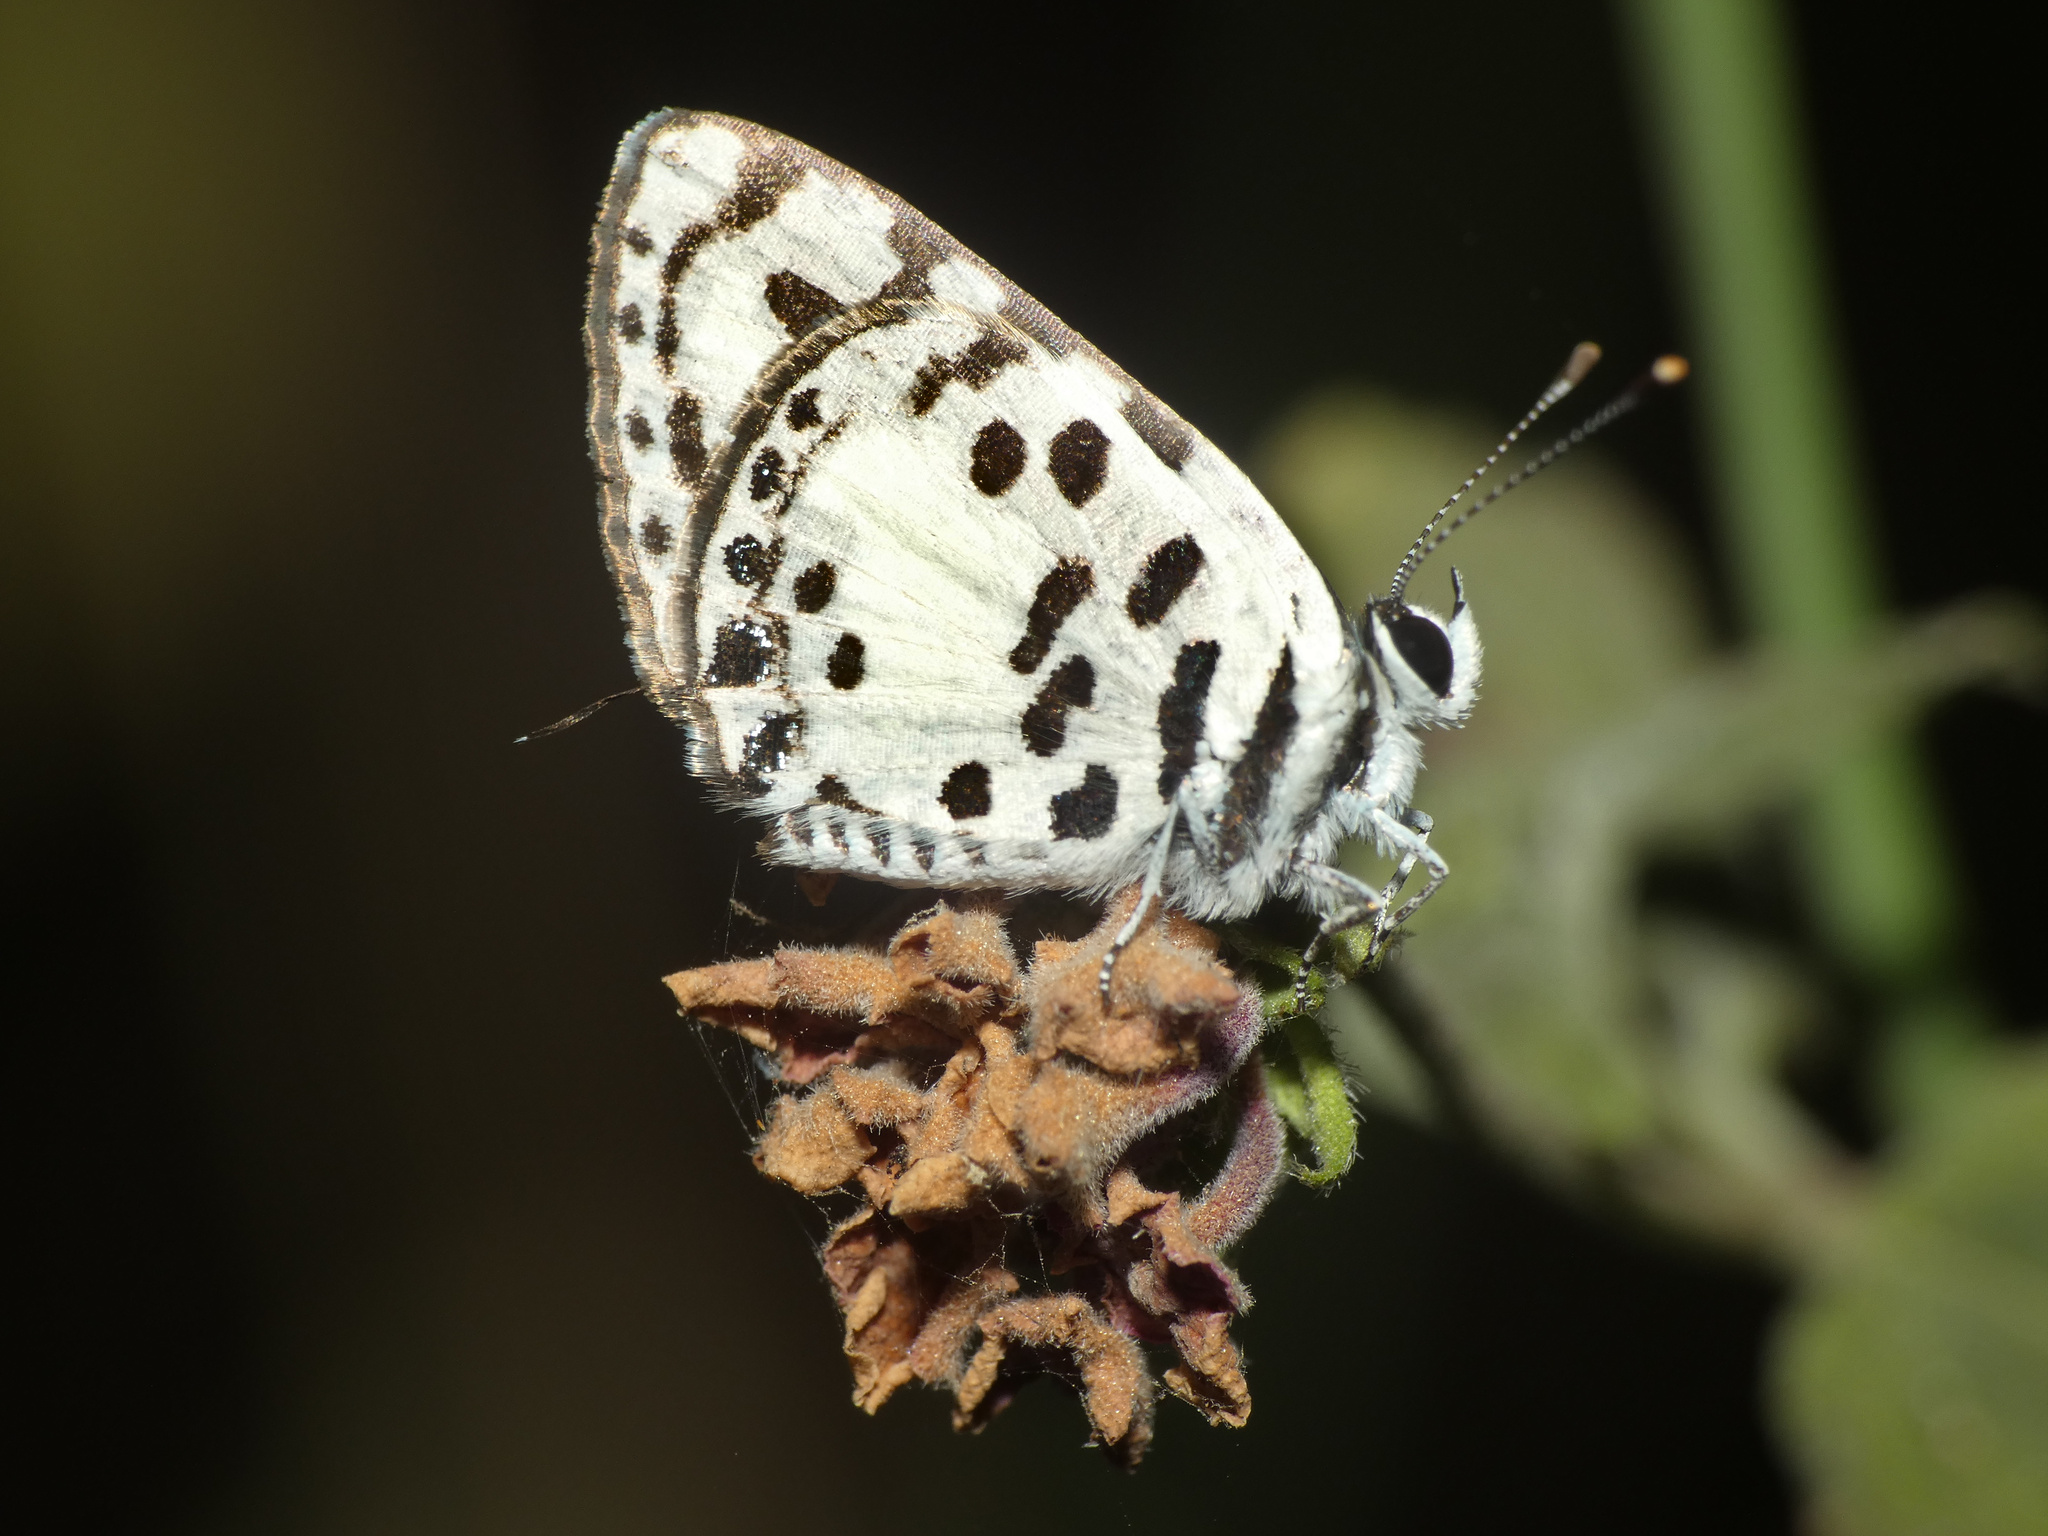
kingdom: Animalia
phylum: Arthropoda
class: Insecta
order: Lepidoptera
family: Lycaenidae
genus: Castalius
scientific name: Castalius calice
